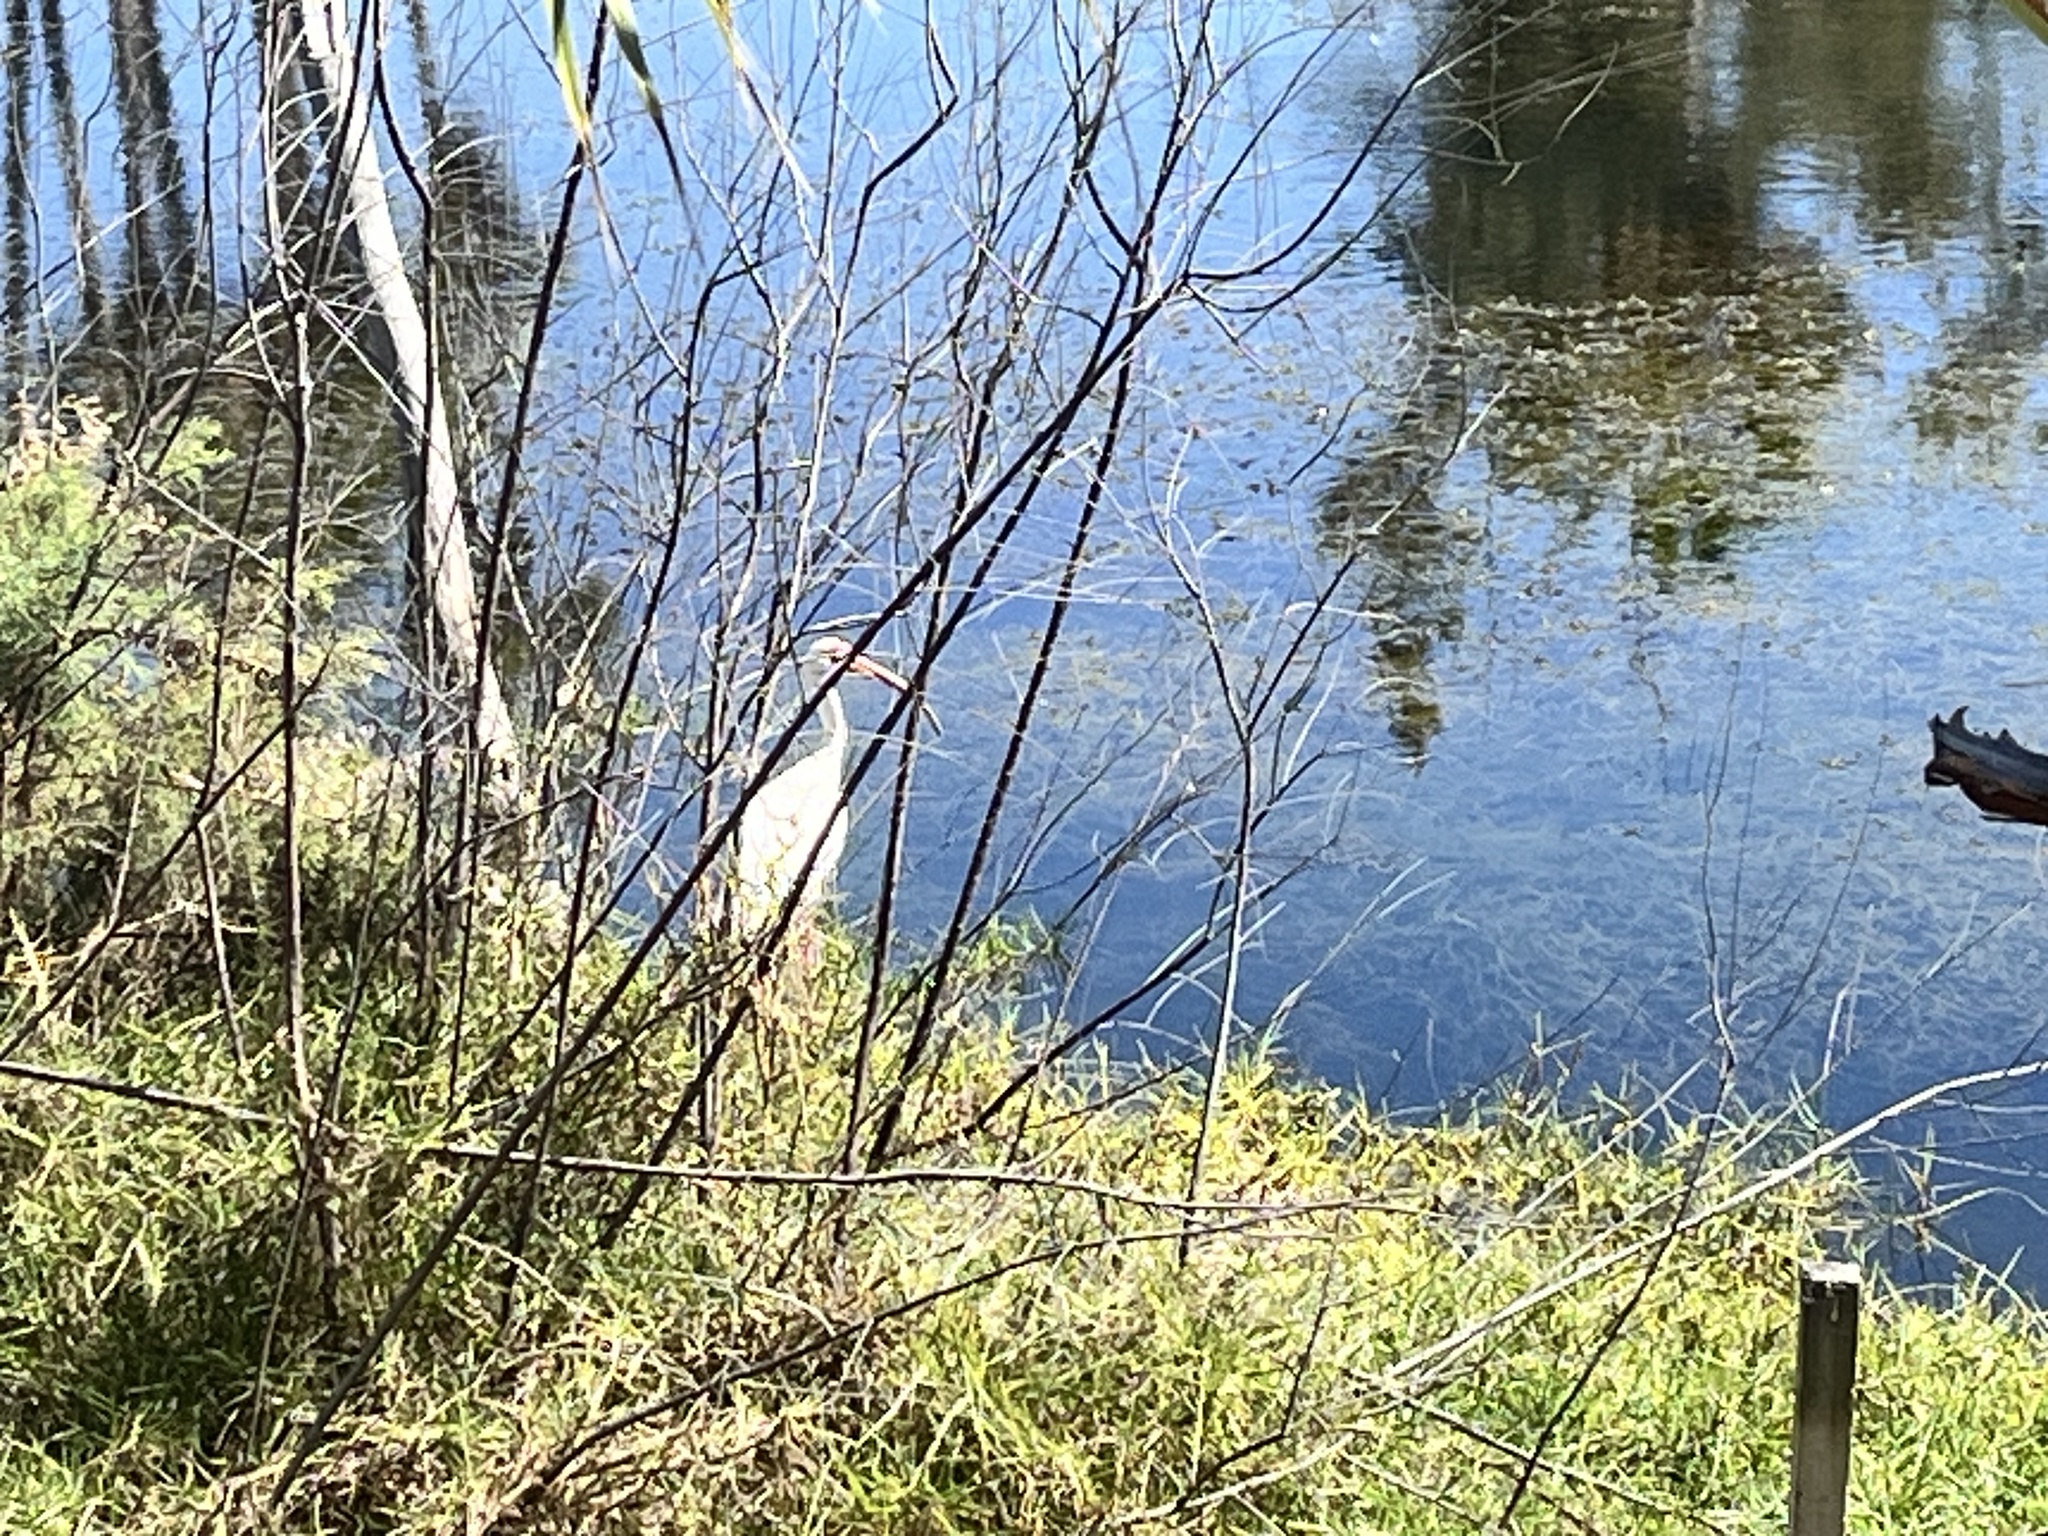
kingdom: Animalia
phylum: Chordata
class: Aves
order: Pelecaniformes
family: Threskiornithidae
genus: Eudocimus
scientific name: Eudocimus albus
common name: White ibis
